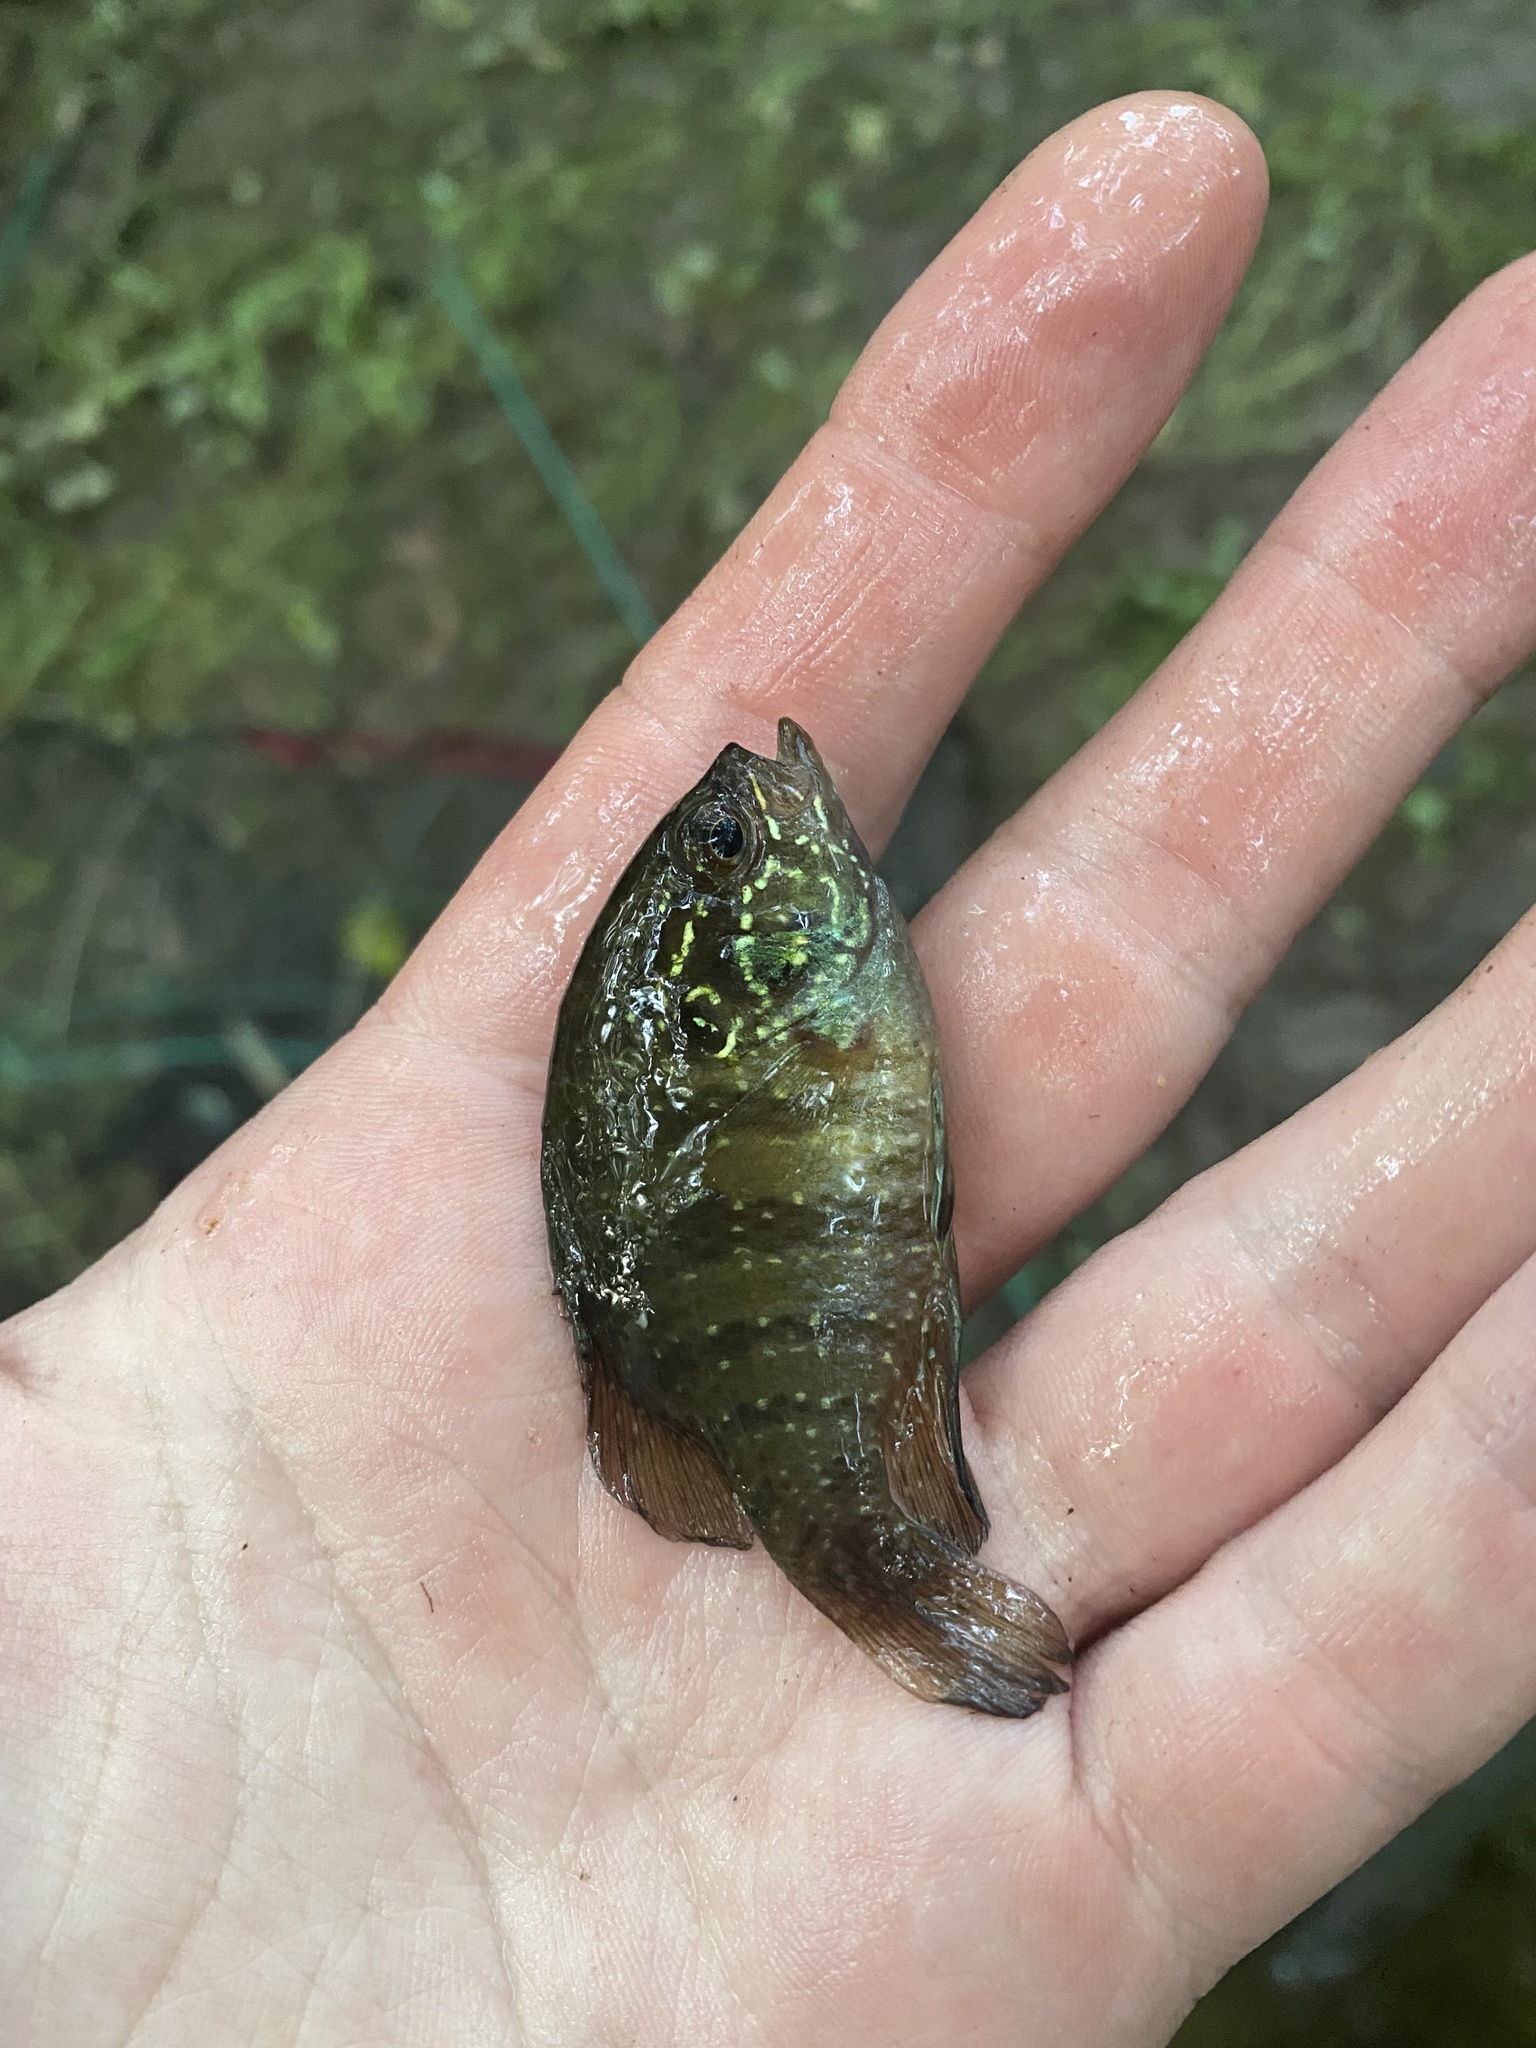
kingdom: Animalia
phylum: Chordata
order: Perciformes
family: Centrarchidae
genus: Enneacanthus
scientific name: Enneacanthus obesus
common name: Banded sunfish
